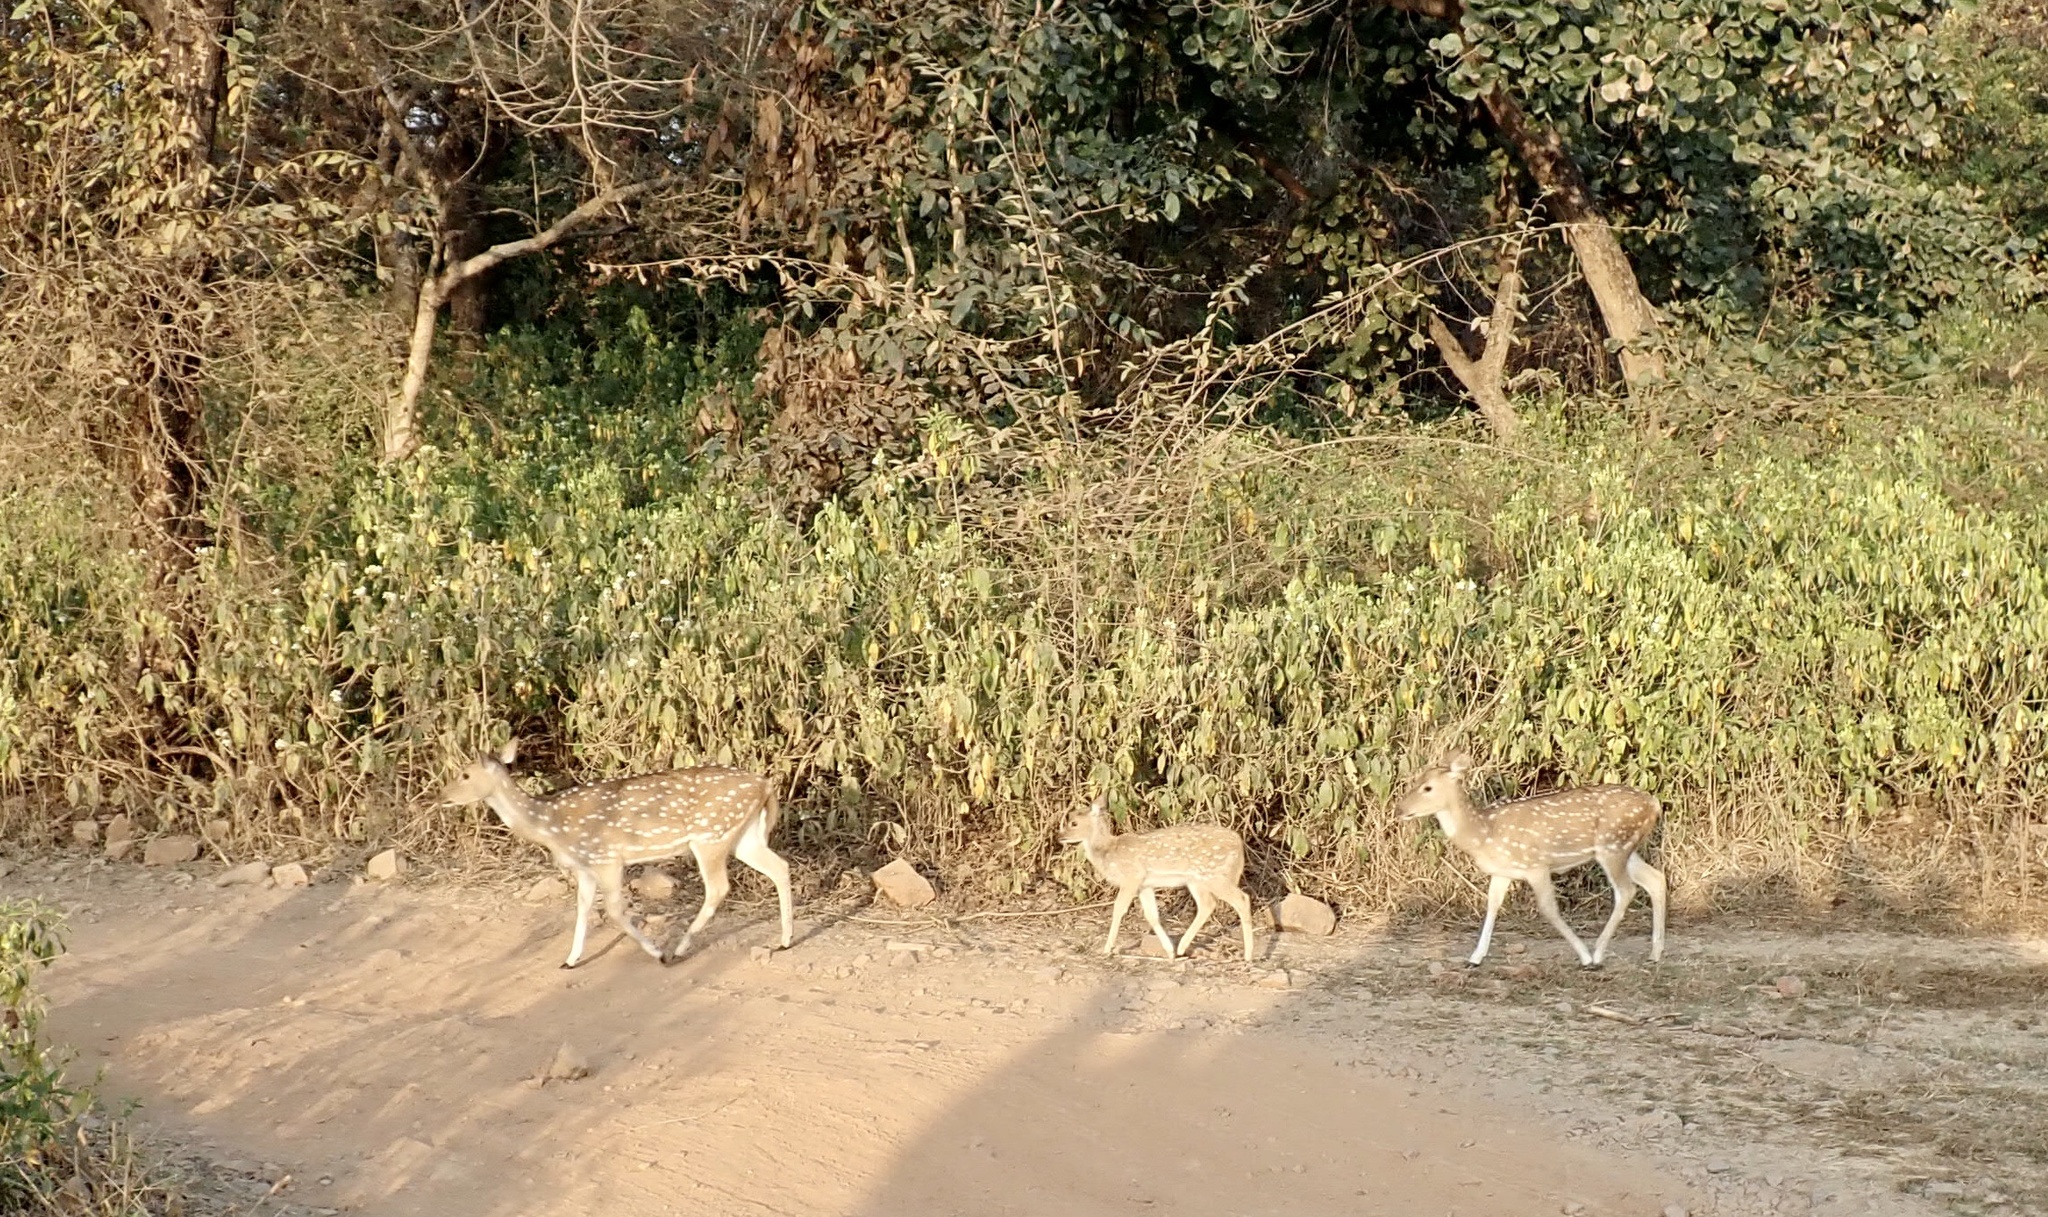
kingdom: Animalia
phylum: Chordata
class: Mammalia
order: Artiodactyla
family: Cervidae
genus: Axis
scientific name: Axis axis
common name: Chital
